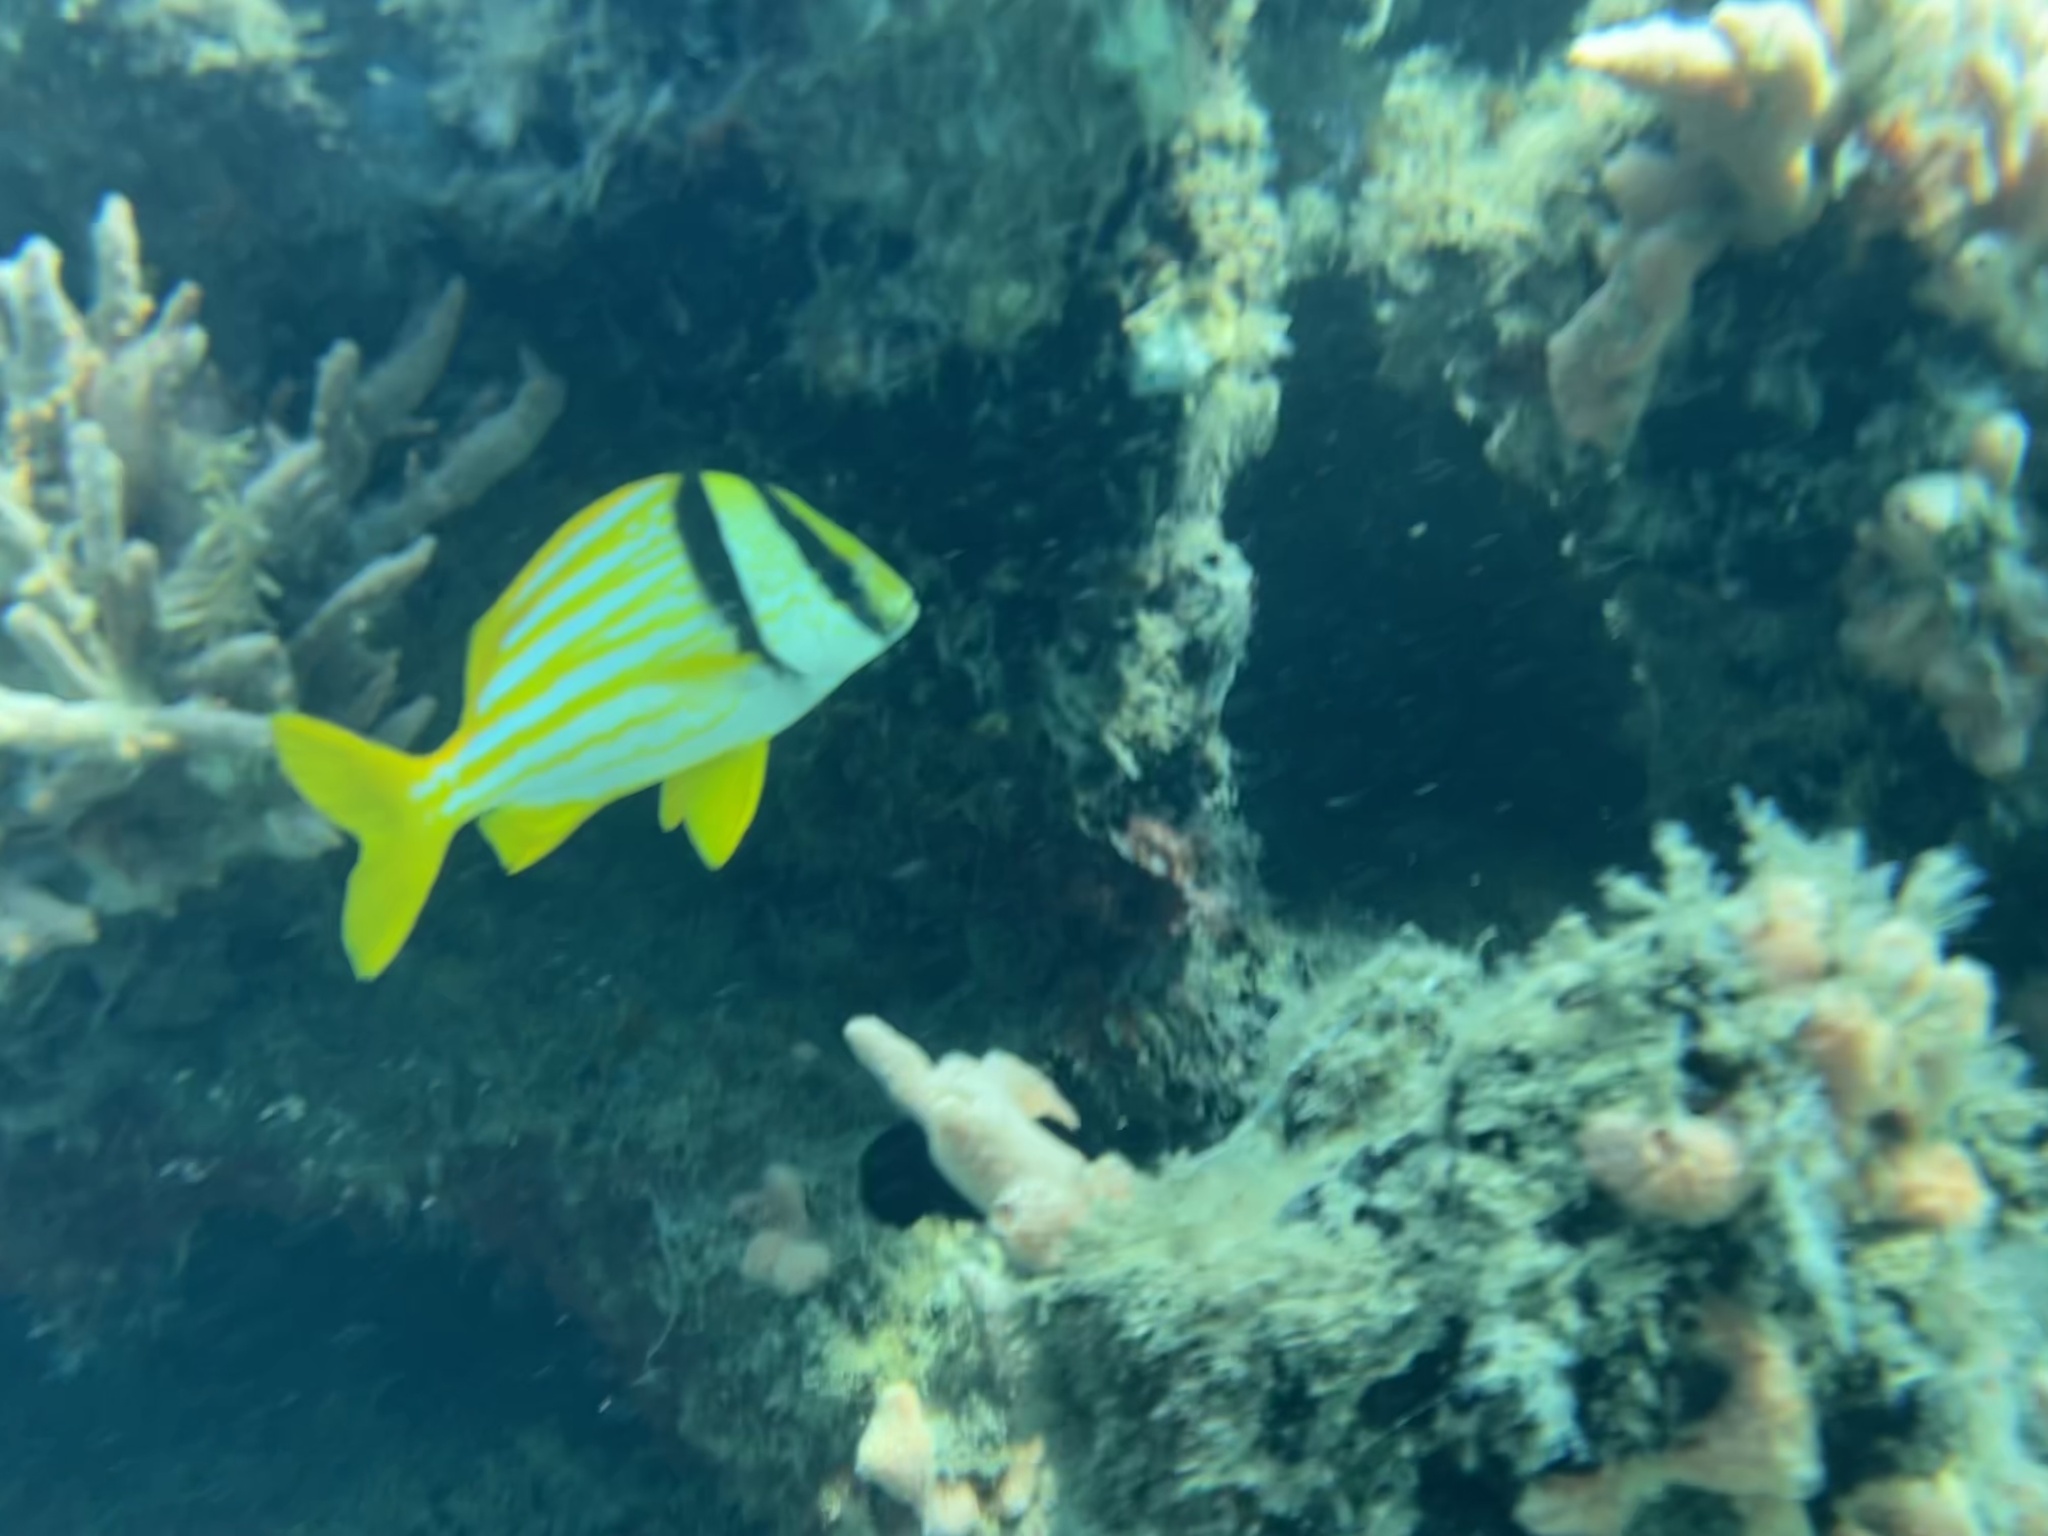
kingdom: Animalia
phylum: Chordata
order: Perciformes
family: Haemulidae
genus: Anisotremus
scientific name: Anisotremus virginicus
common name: Porkfish
